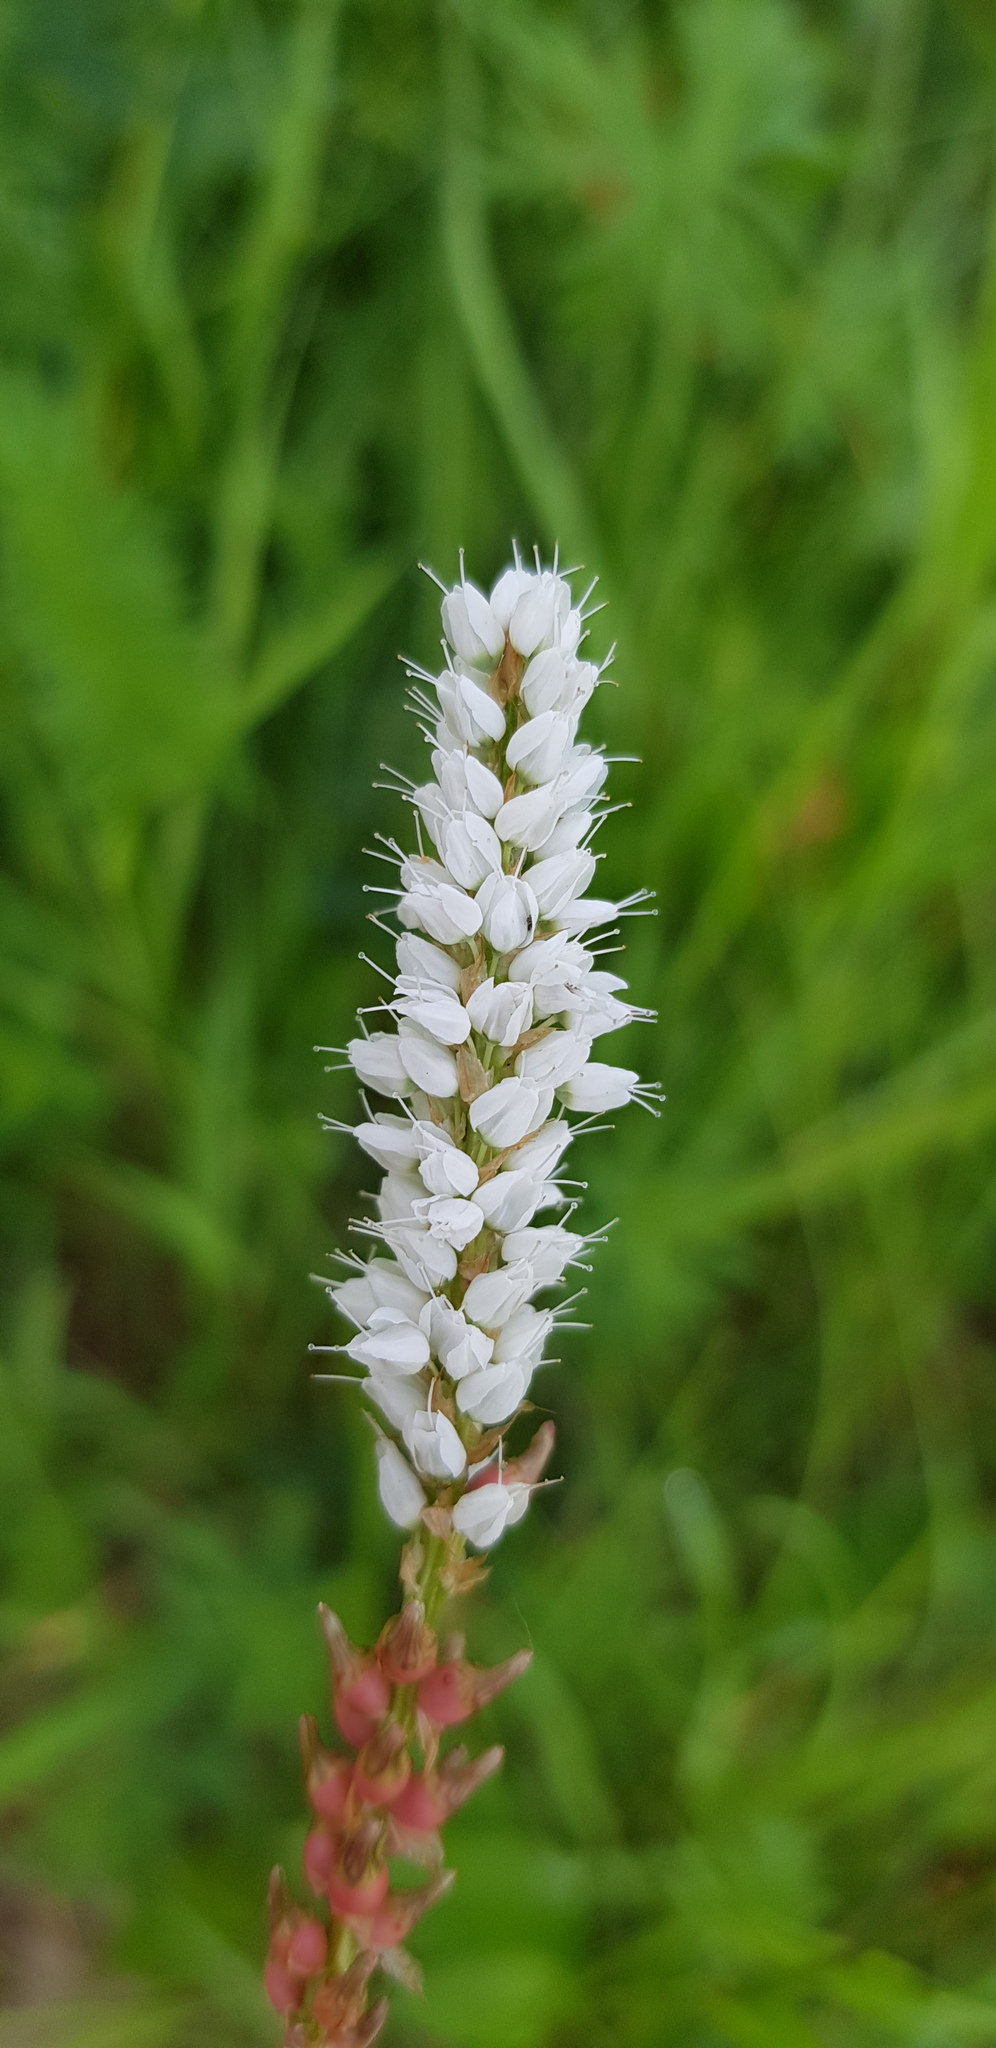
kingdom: Plantae
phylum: Tracheophyta
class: Magnoliopsida
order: Caryophyllales
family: Polygonaceae
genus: Bistorta
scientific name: Bistorta vivipara
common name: Alpine bistort
